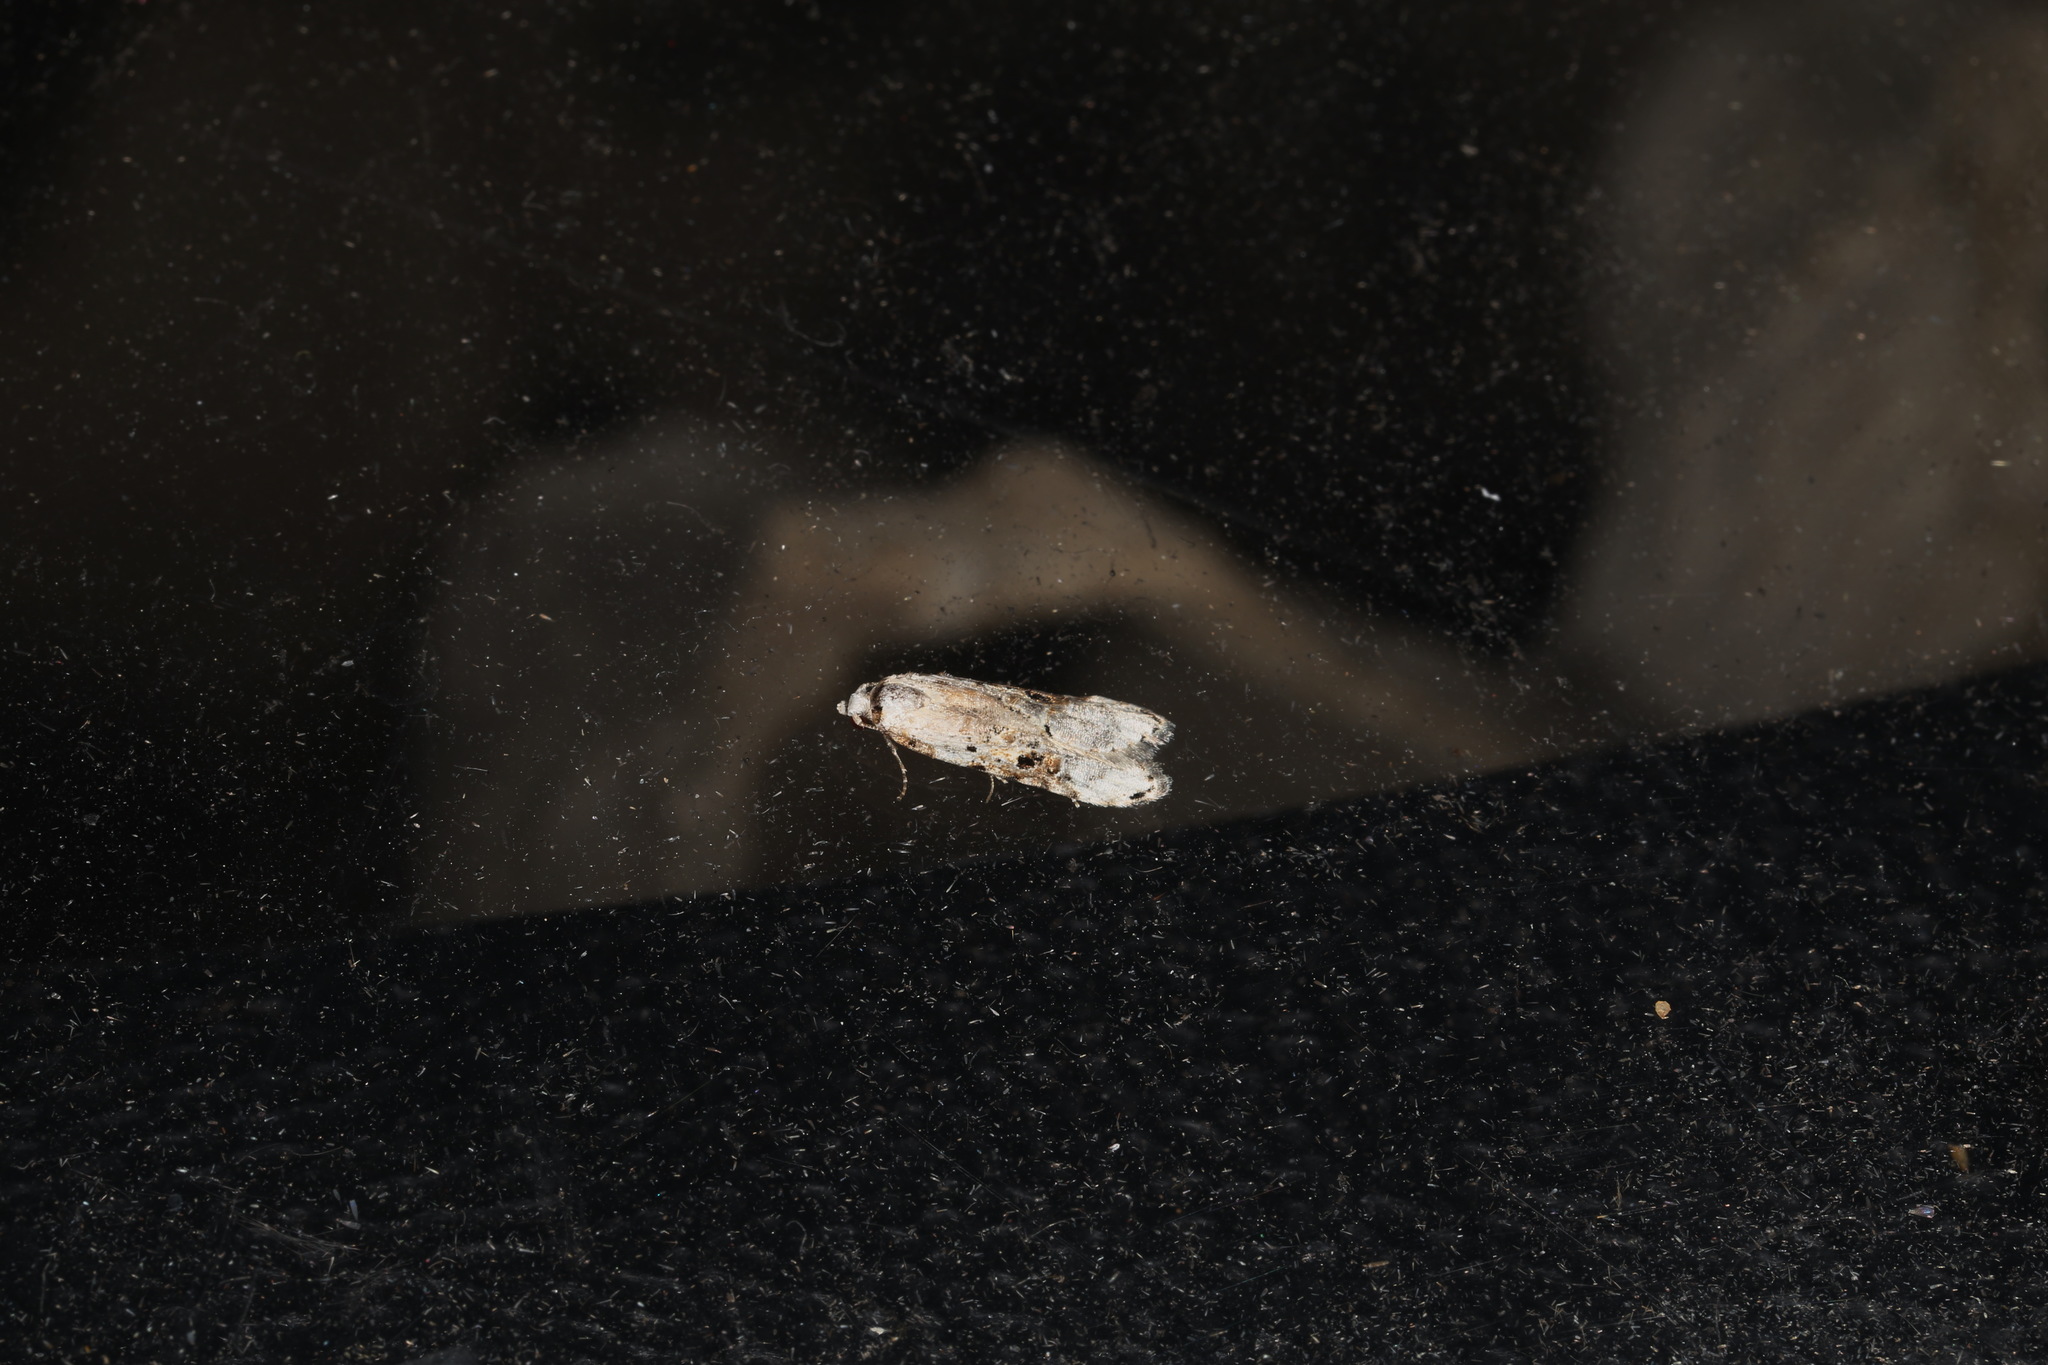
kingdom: Animalia
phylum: Arthropoda
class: Insecta
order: Lepidoptera
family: Carposinidae
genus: Sosineura
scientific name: Sosineura mimica
